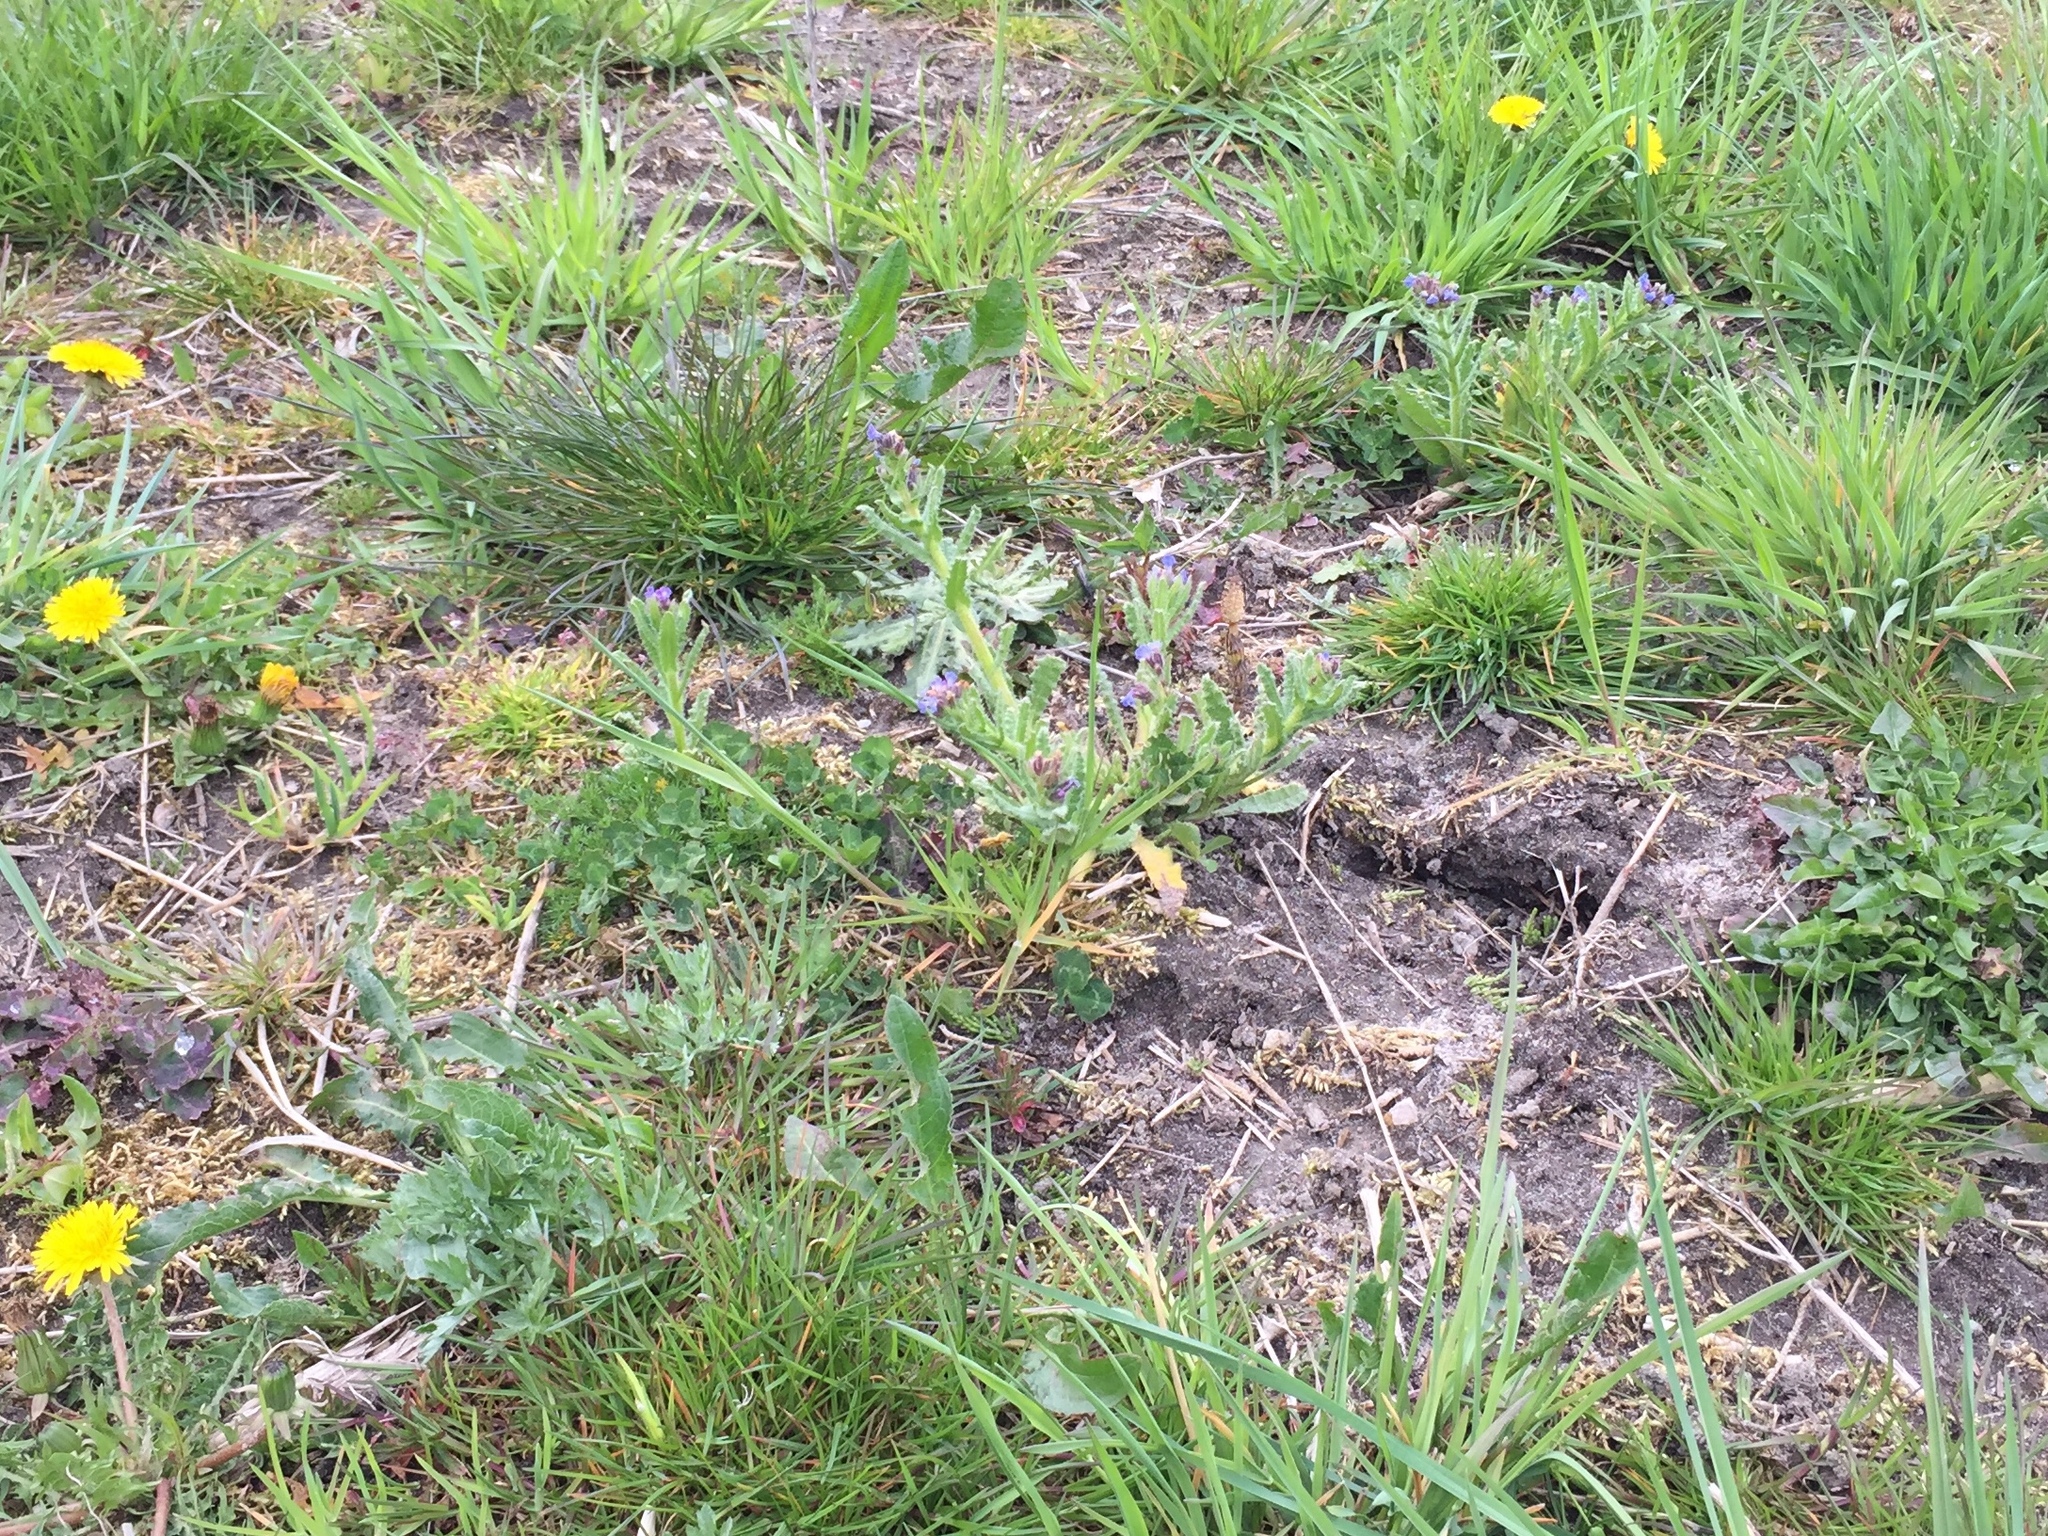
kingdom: Plantae
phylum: Tracheophyta
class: Magnoliopsida
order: Boraginales
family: Boraginaceae
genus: Lycopsis
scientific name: Lycopsis arvensis
